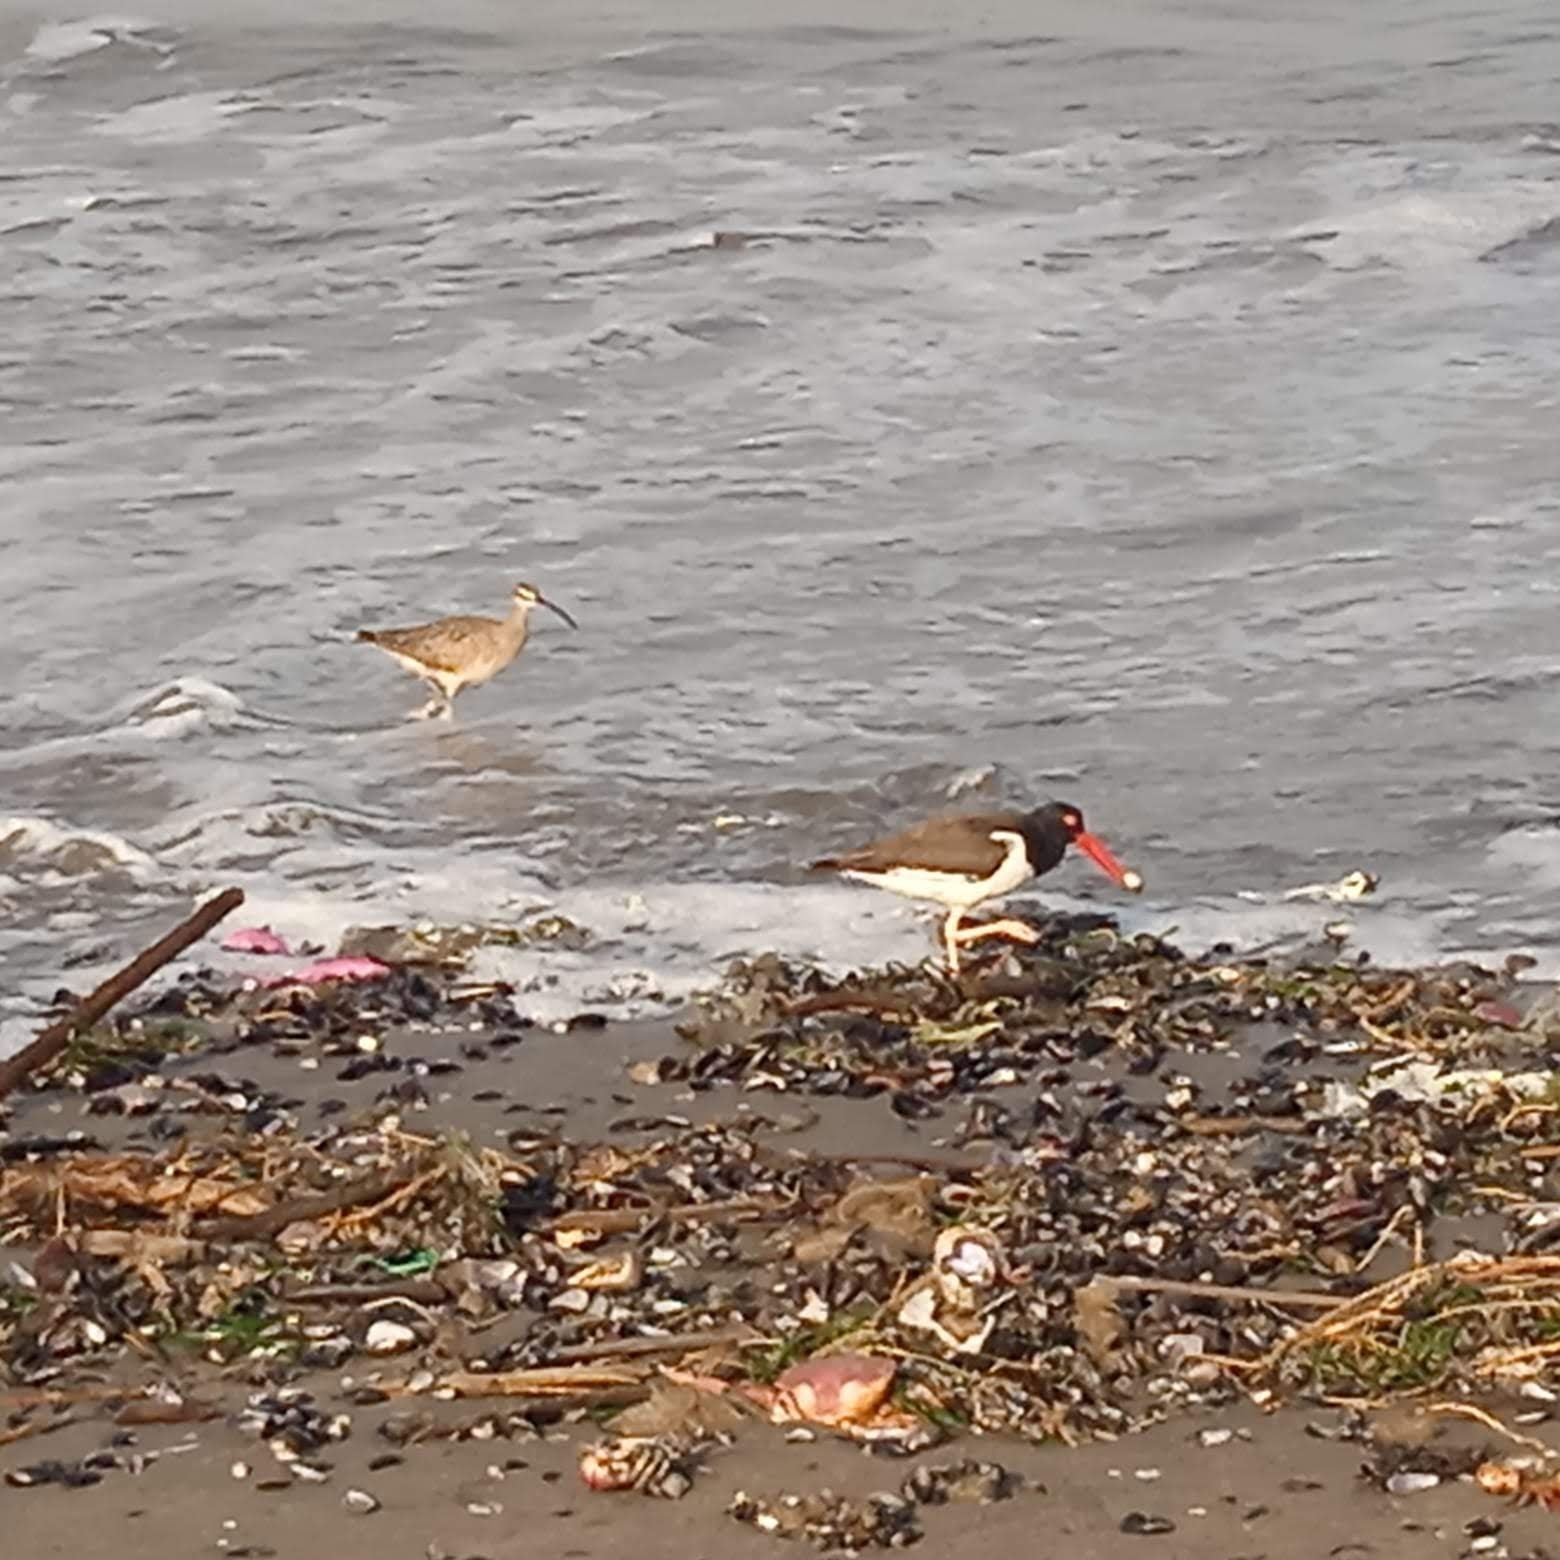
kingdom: Animalia
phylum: Chordata
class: Aves
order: Charadriiformes
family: Haematopodidae
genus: Haematopus
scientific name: Haematopus palliatus
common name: American oystercatcher
